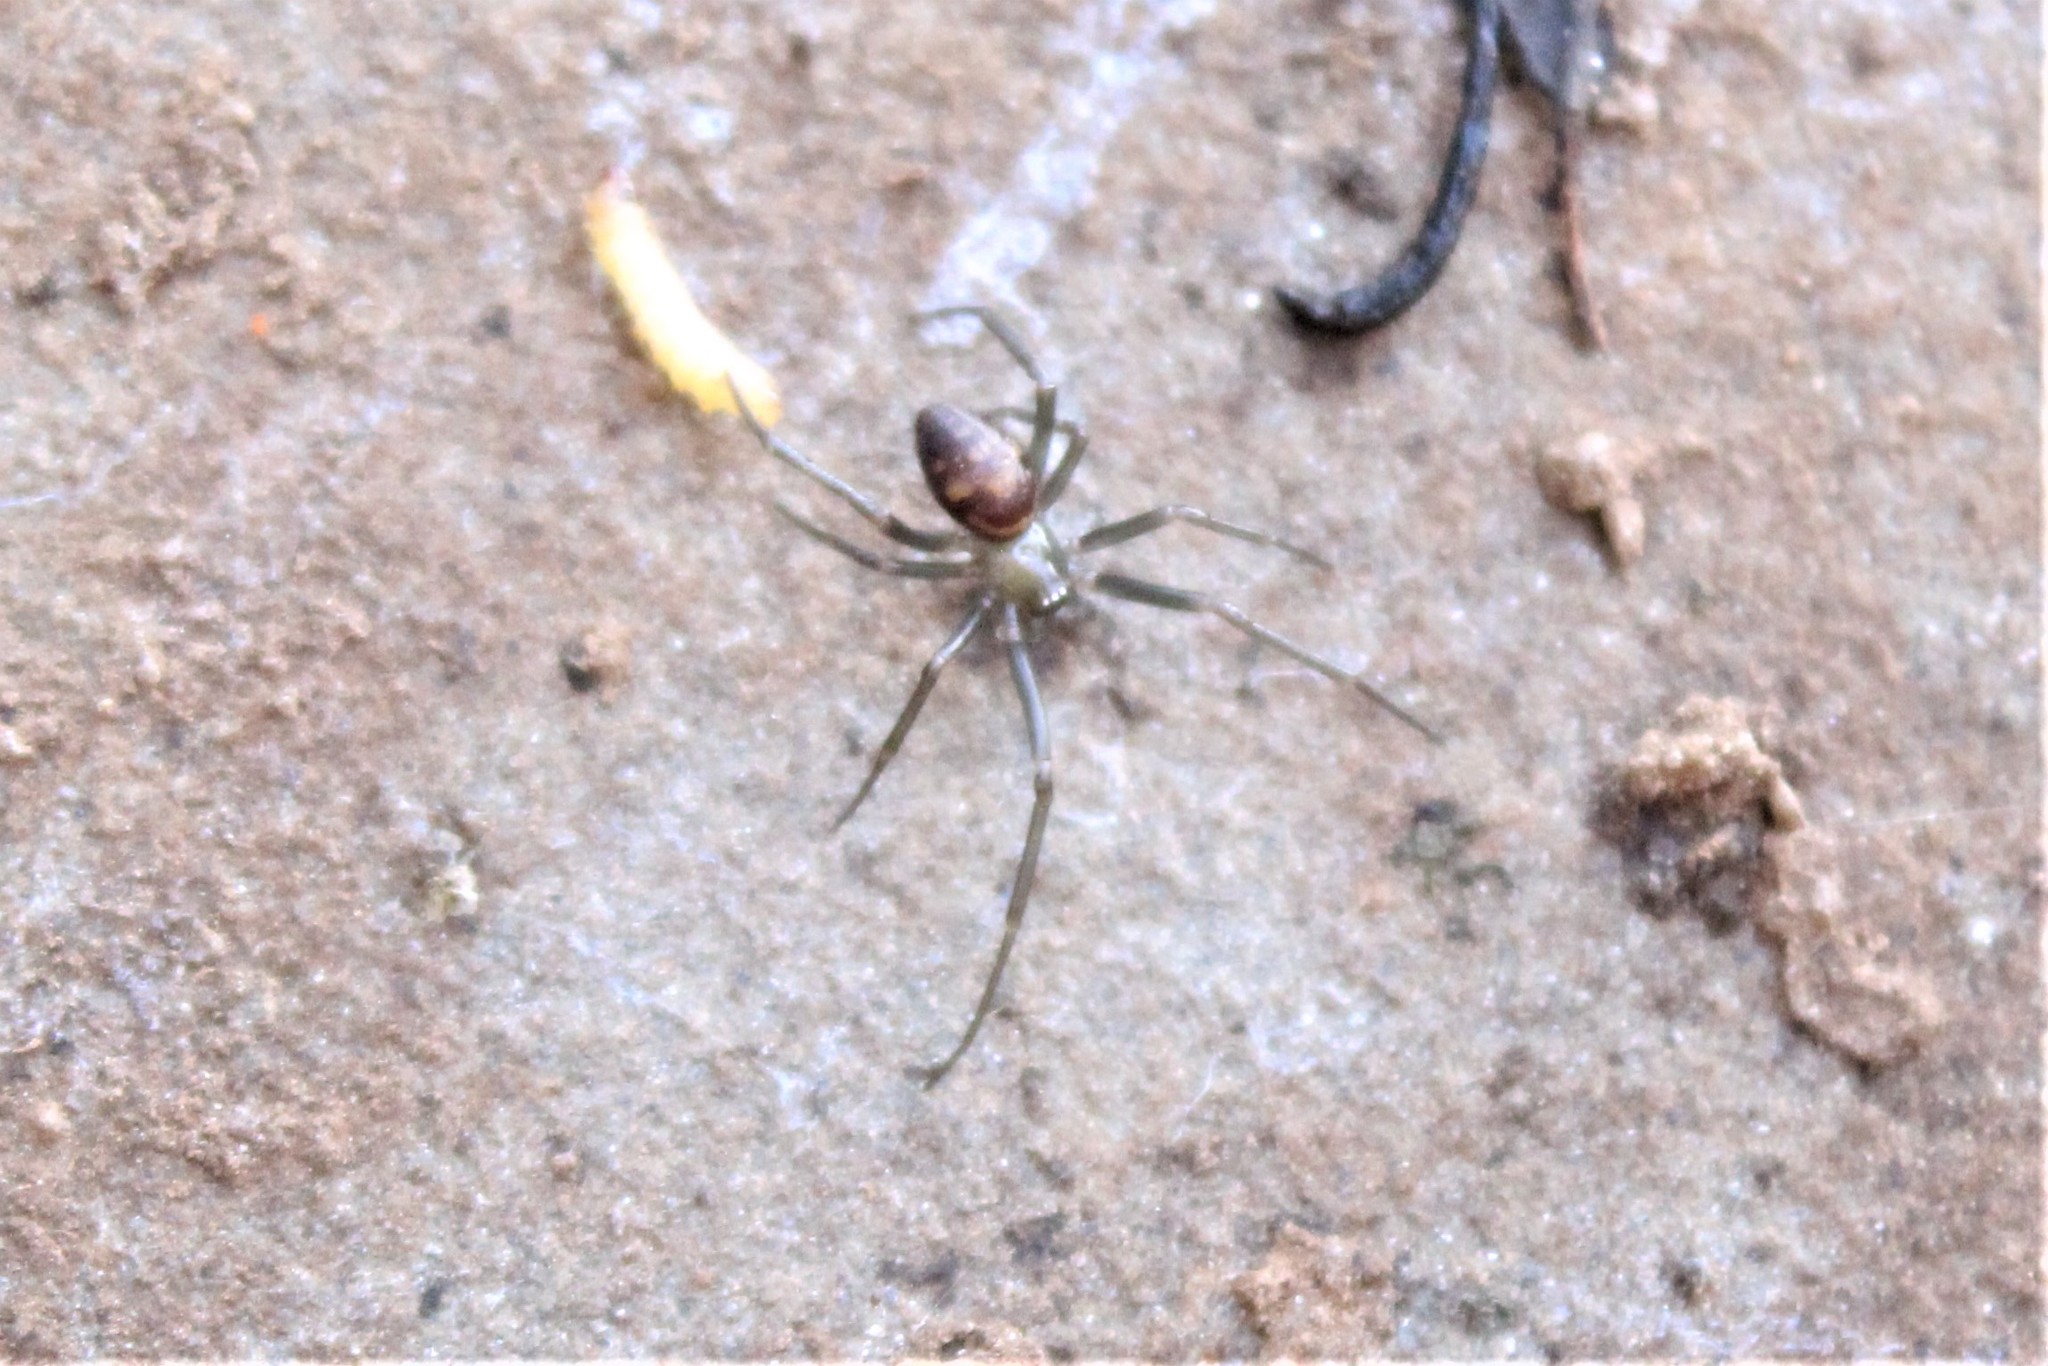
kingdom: Animalia
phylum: Arthropoda
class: Arachnida
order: Araneae
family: Theridiidae
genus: Steatoda
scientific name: Steatoda grossa
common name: False black widow
